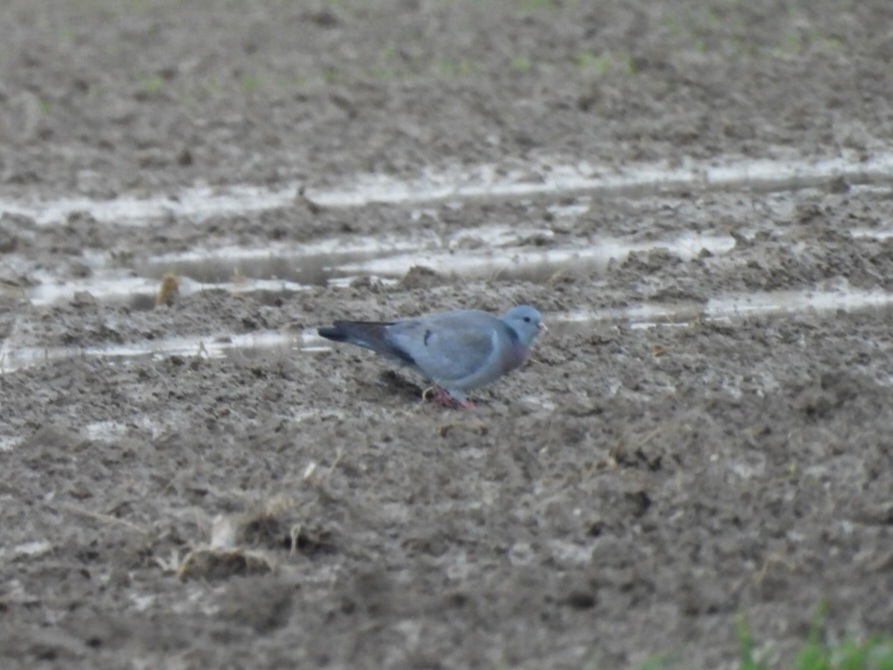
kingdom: Animalia
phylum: Chordata
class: Aves
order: Columbiformes
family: Columbidae
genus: Columba
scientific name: Columba oenas
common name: Stock dove
